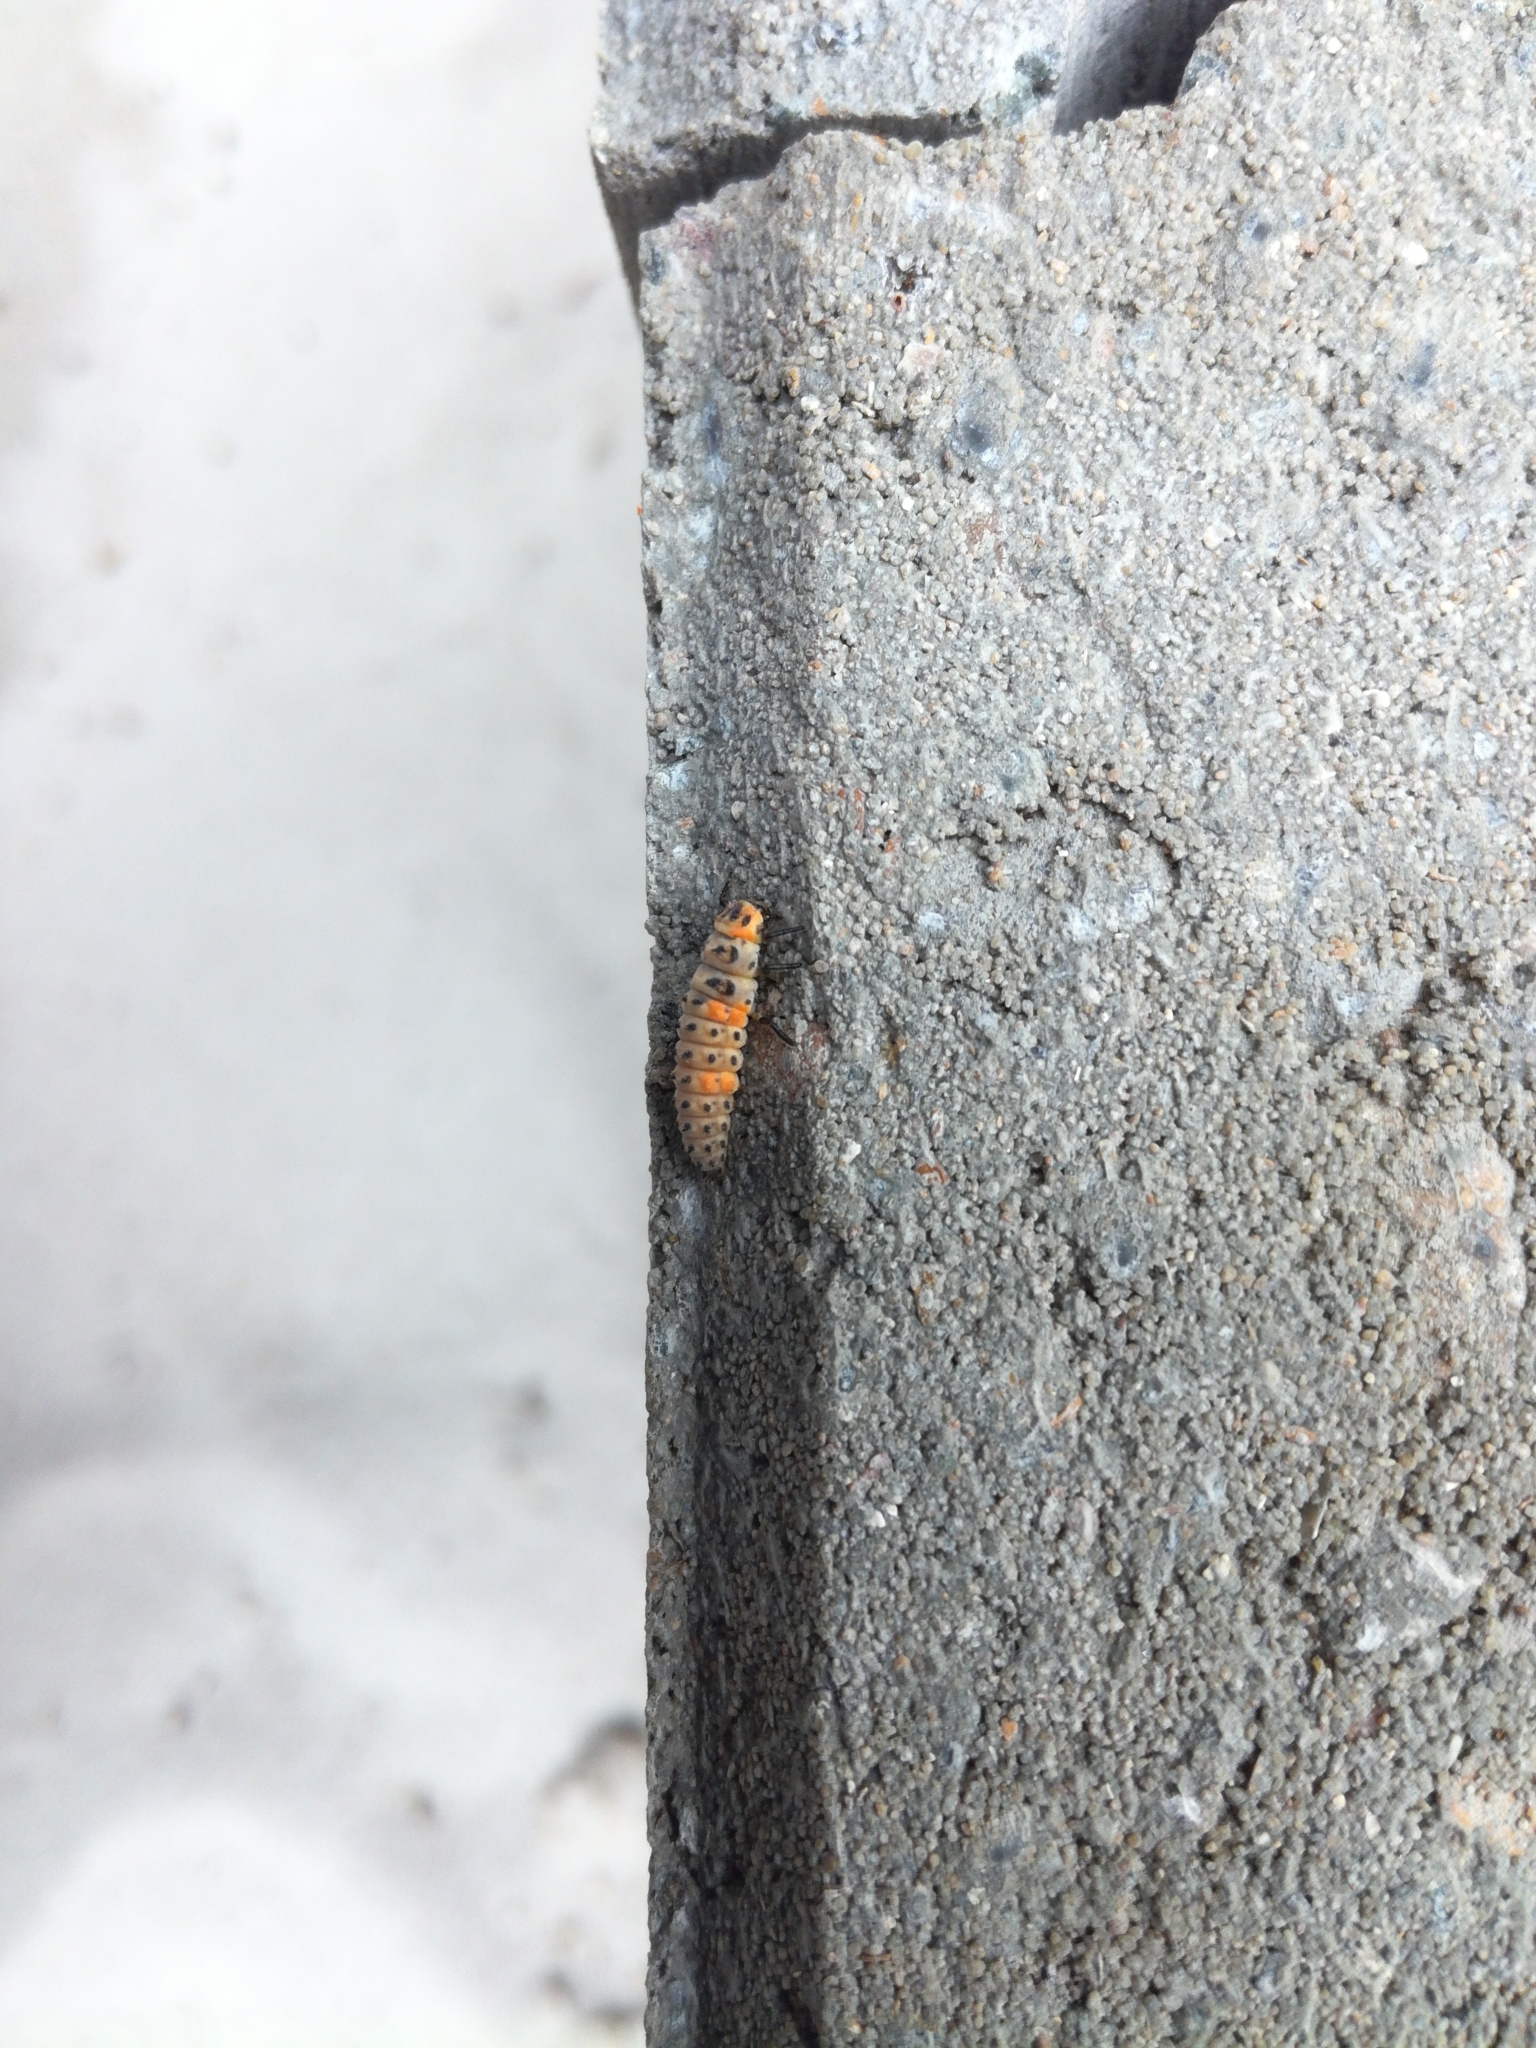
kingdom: Animalia
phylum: Arthropoda
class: Insecta
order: Coleoptera
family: Coccinellidae
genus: Coccinella
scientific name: Coccinella septempunctata
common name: Sevenspotted lady beetle
